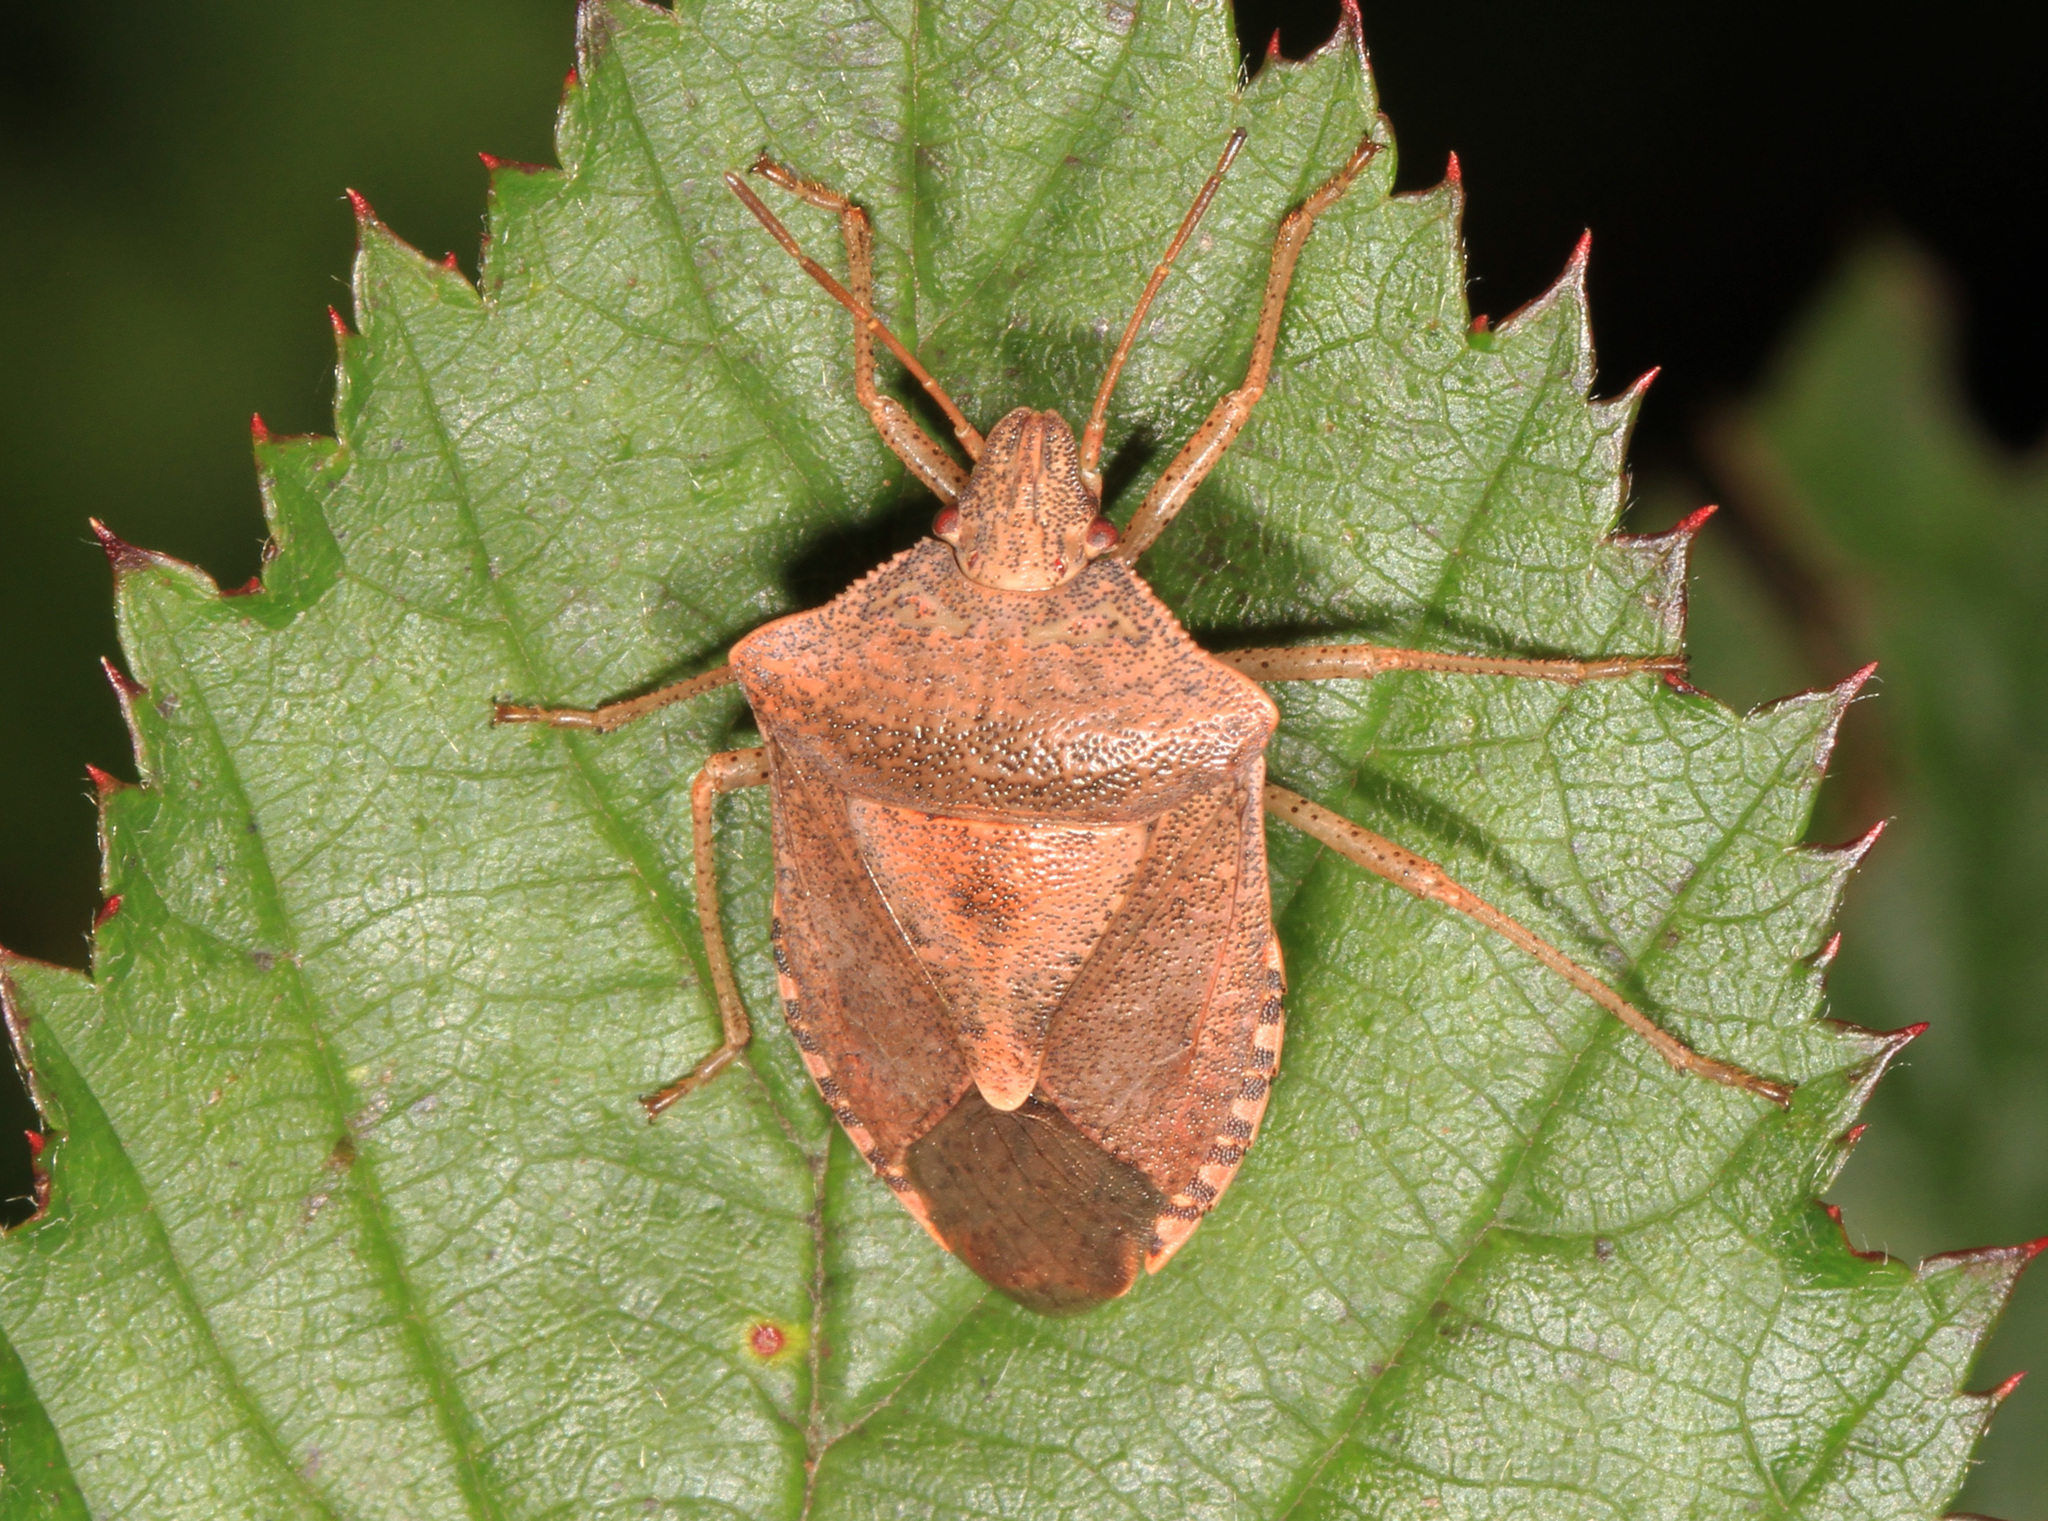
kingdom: Animalia
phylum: Arthropoda
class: Insecta
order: Hemiptera
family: Pentatomidae
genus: Euschistus
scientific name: Euschistus servus
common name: Brown stink bug
